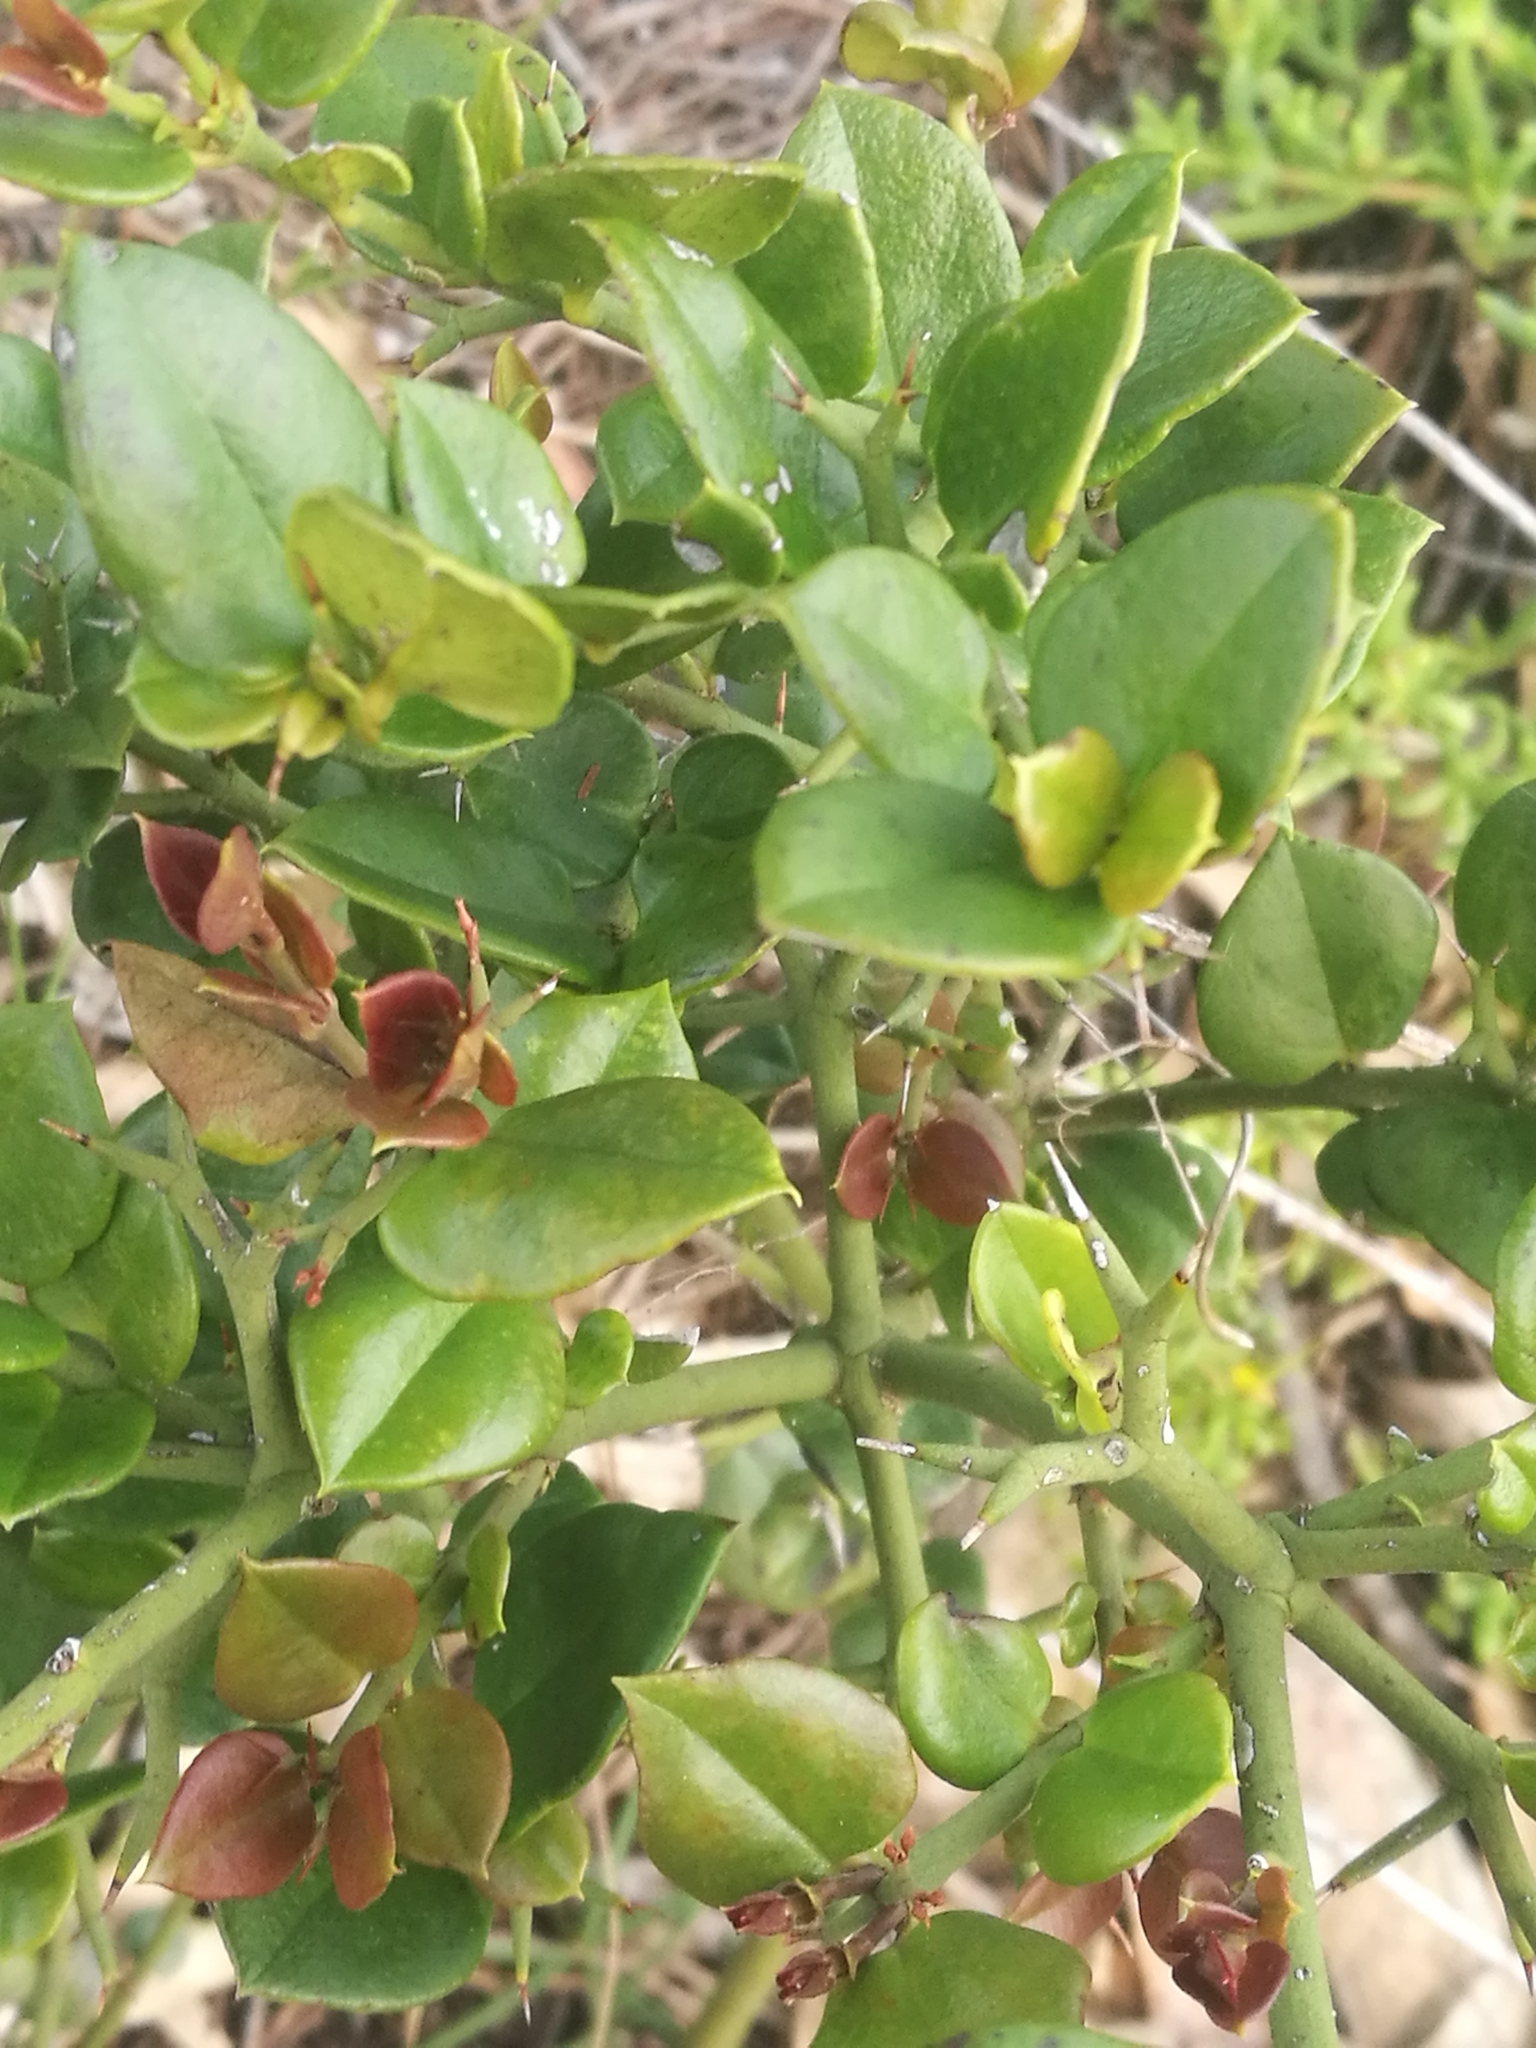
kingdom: Plantae
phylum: Tracheophyta
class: Magnoliopsida
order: Gentianales
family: Apocynaceae
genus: Carissa
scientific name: Carissa bispinosa
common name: Forest num-num
